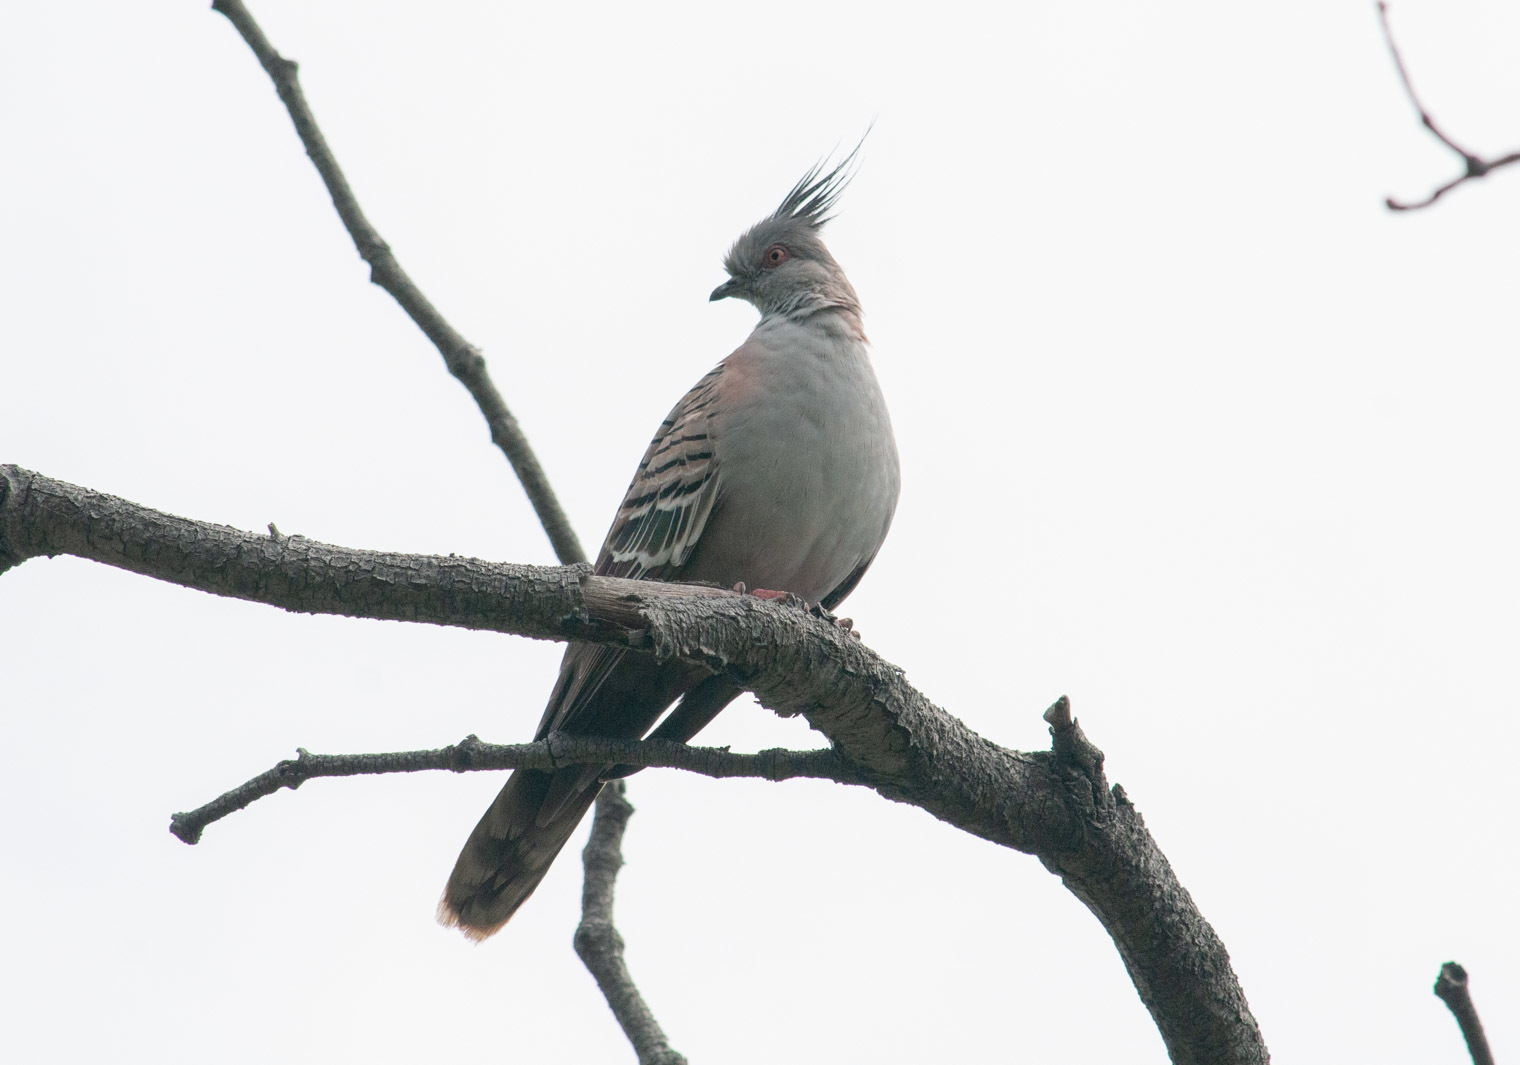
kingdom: Animalia
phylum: Chordata
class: Aves
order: Columbiformes
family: Columbidae
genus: Ocyphaps
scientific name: Ocyphaps lophotes
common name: Crested pigeon
